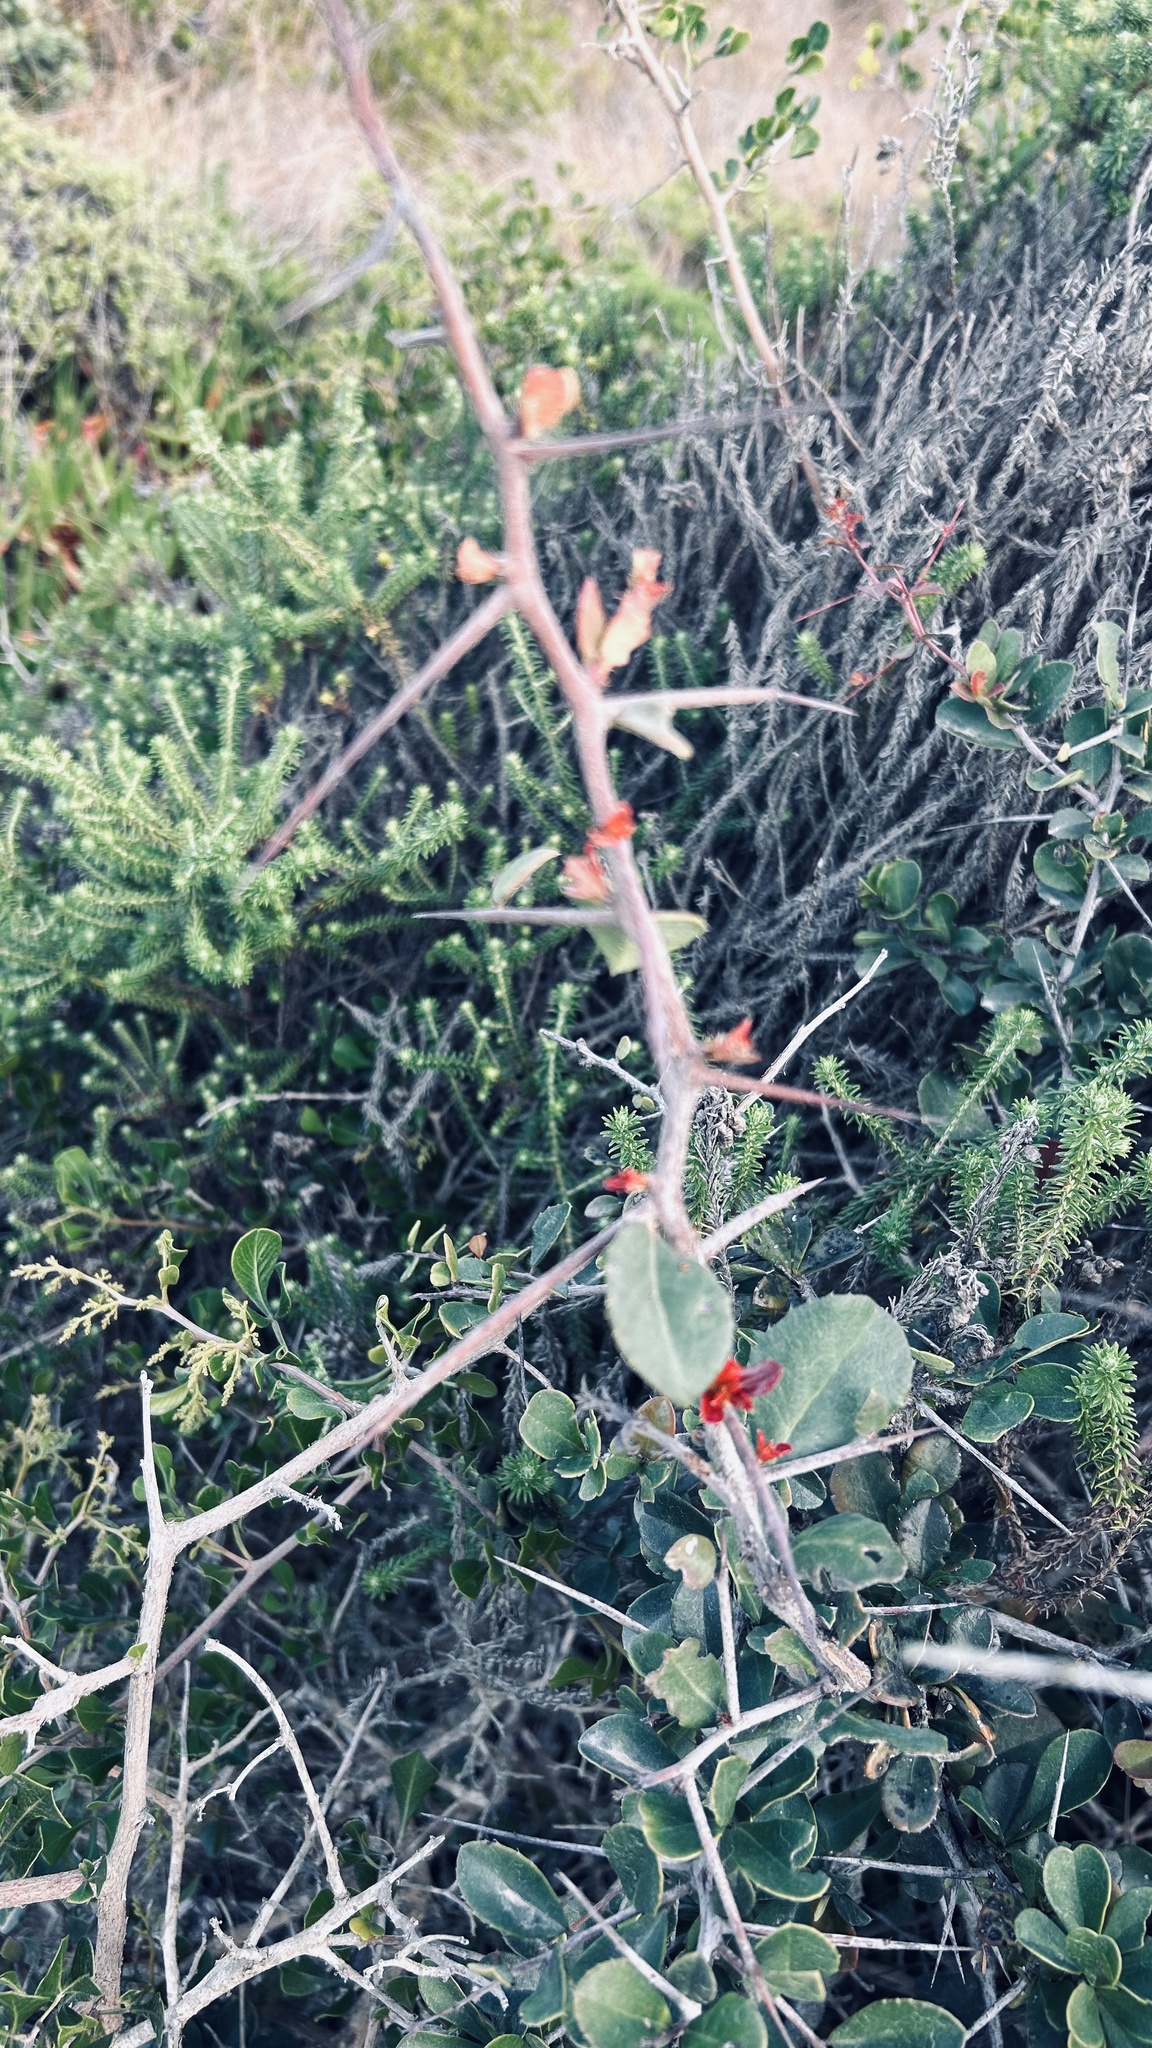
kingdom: Plantae
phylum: Tracheophyta
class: Magnoliopsida
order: Celastrales
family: Celastraceae
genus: Putterlickia
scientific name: Putterlickia pyracantha
